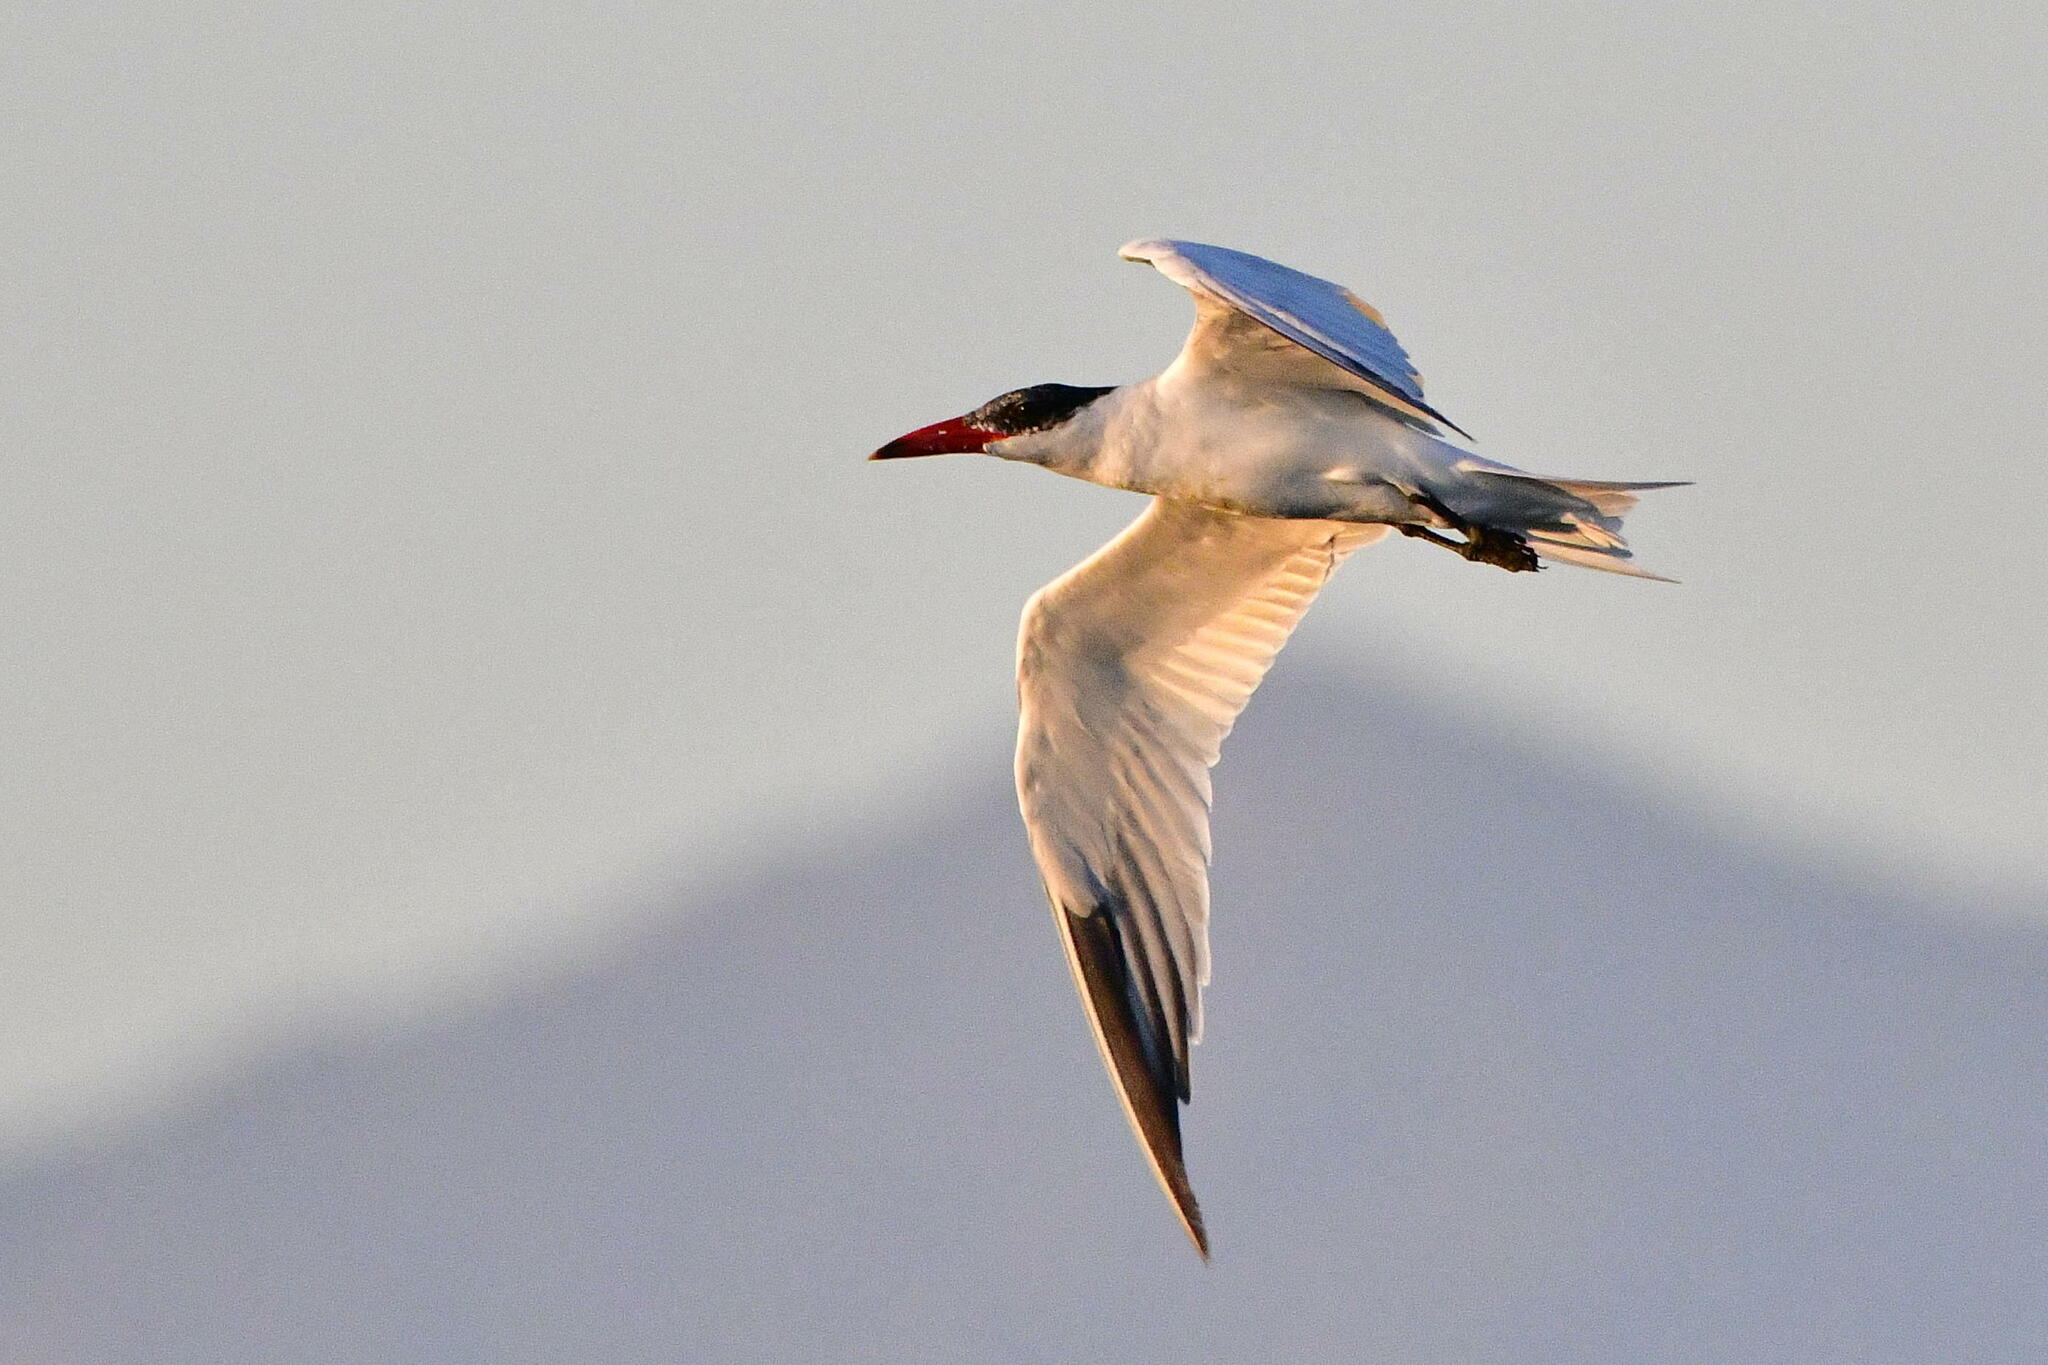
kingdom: Animalia
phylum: Chordata
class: Aves
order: Charadriiformes
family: Laridae
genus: Hydroprogne
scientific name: Hydroprogne caspia
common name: Caspian tern
